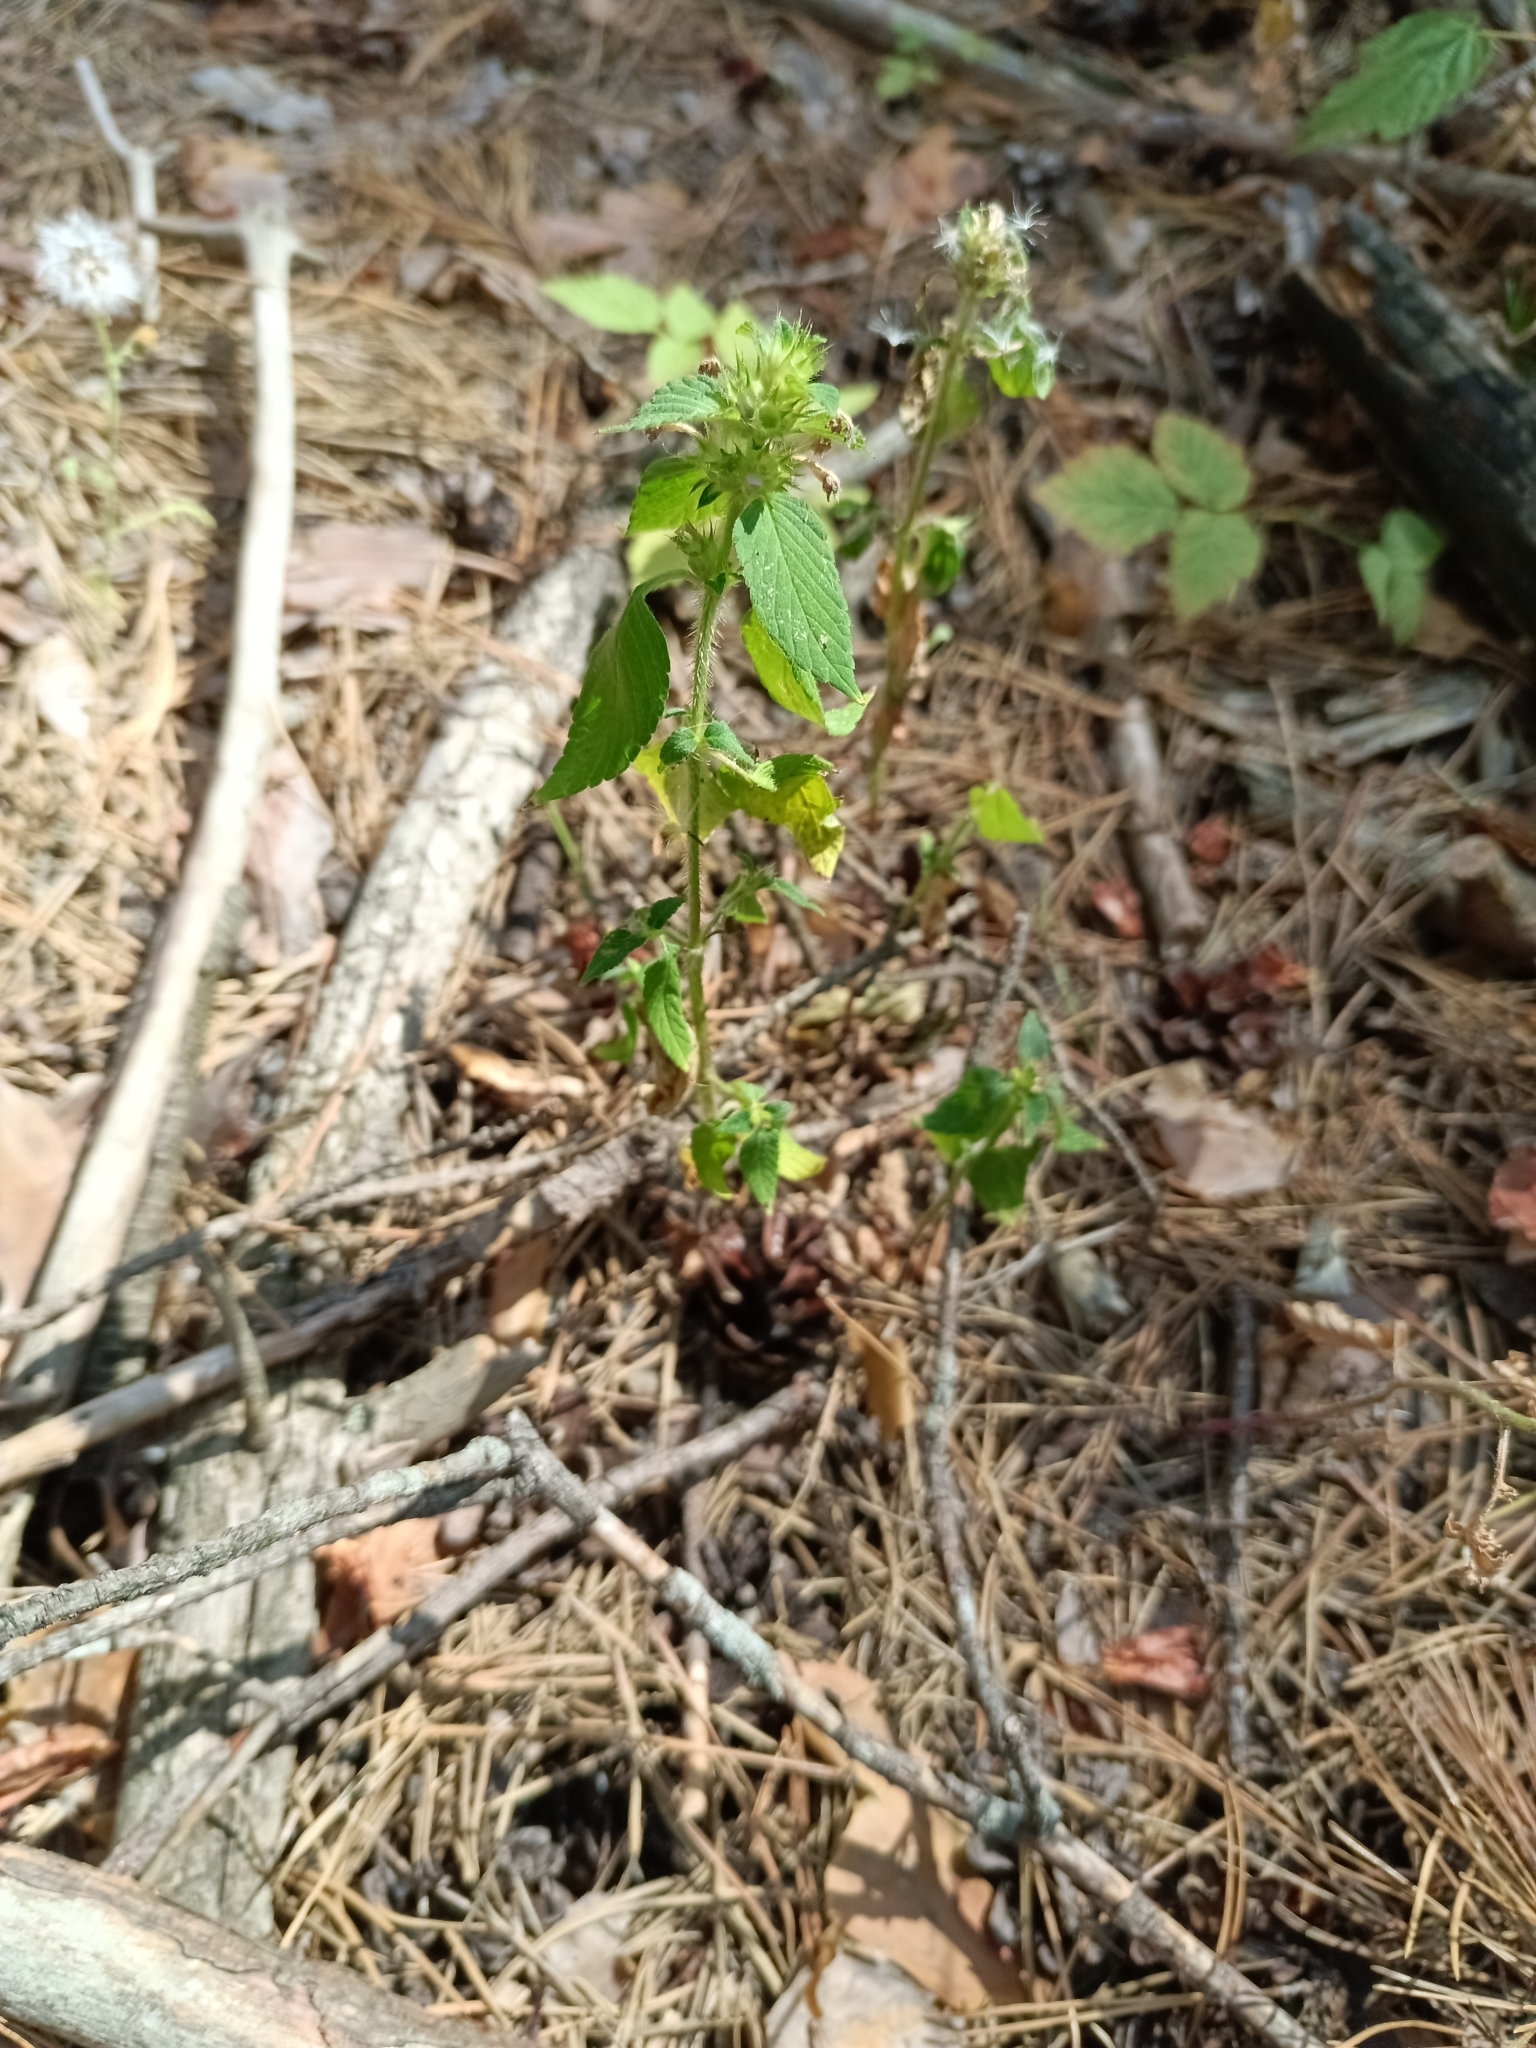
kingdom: Plantae
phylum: Tracheophyta
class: Magnoliopsida
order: Lamiales
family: Lamiaceae
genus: Galeopsis
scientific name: Galeopsis bifida
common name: Bifid hemp-nettle
